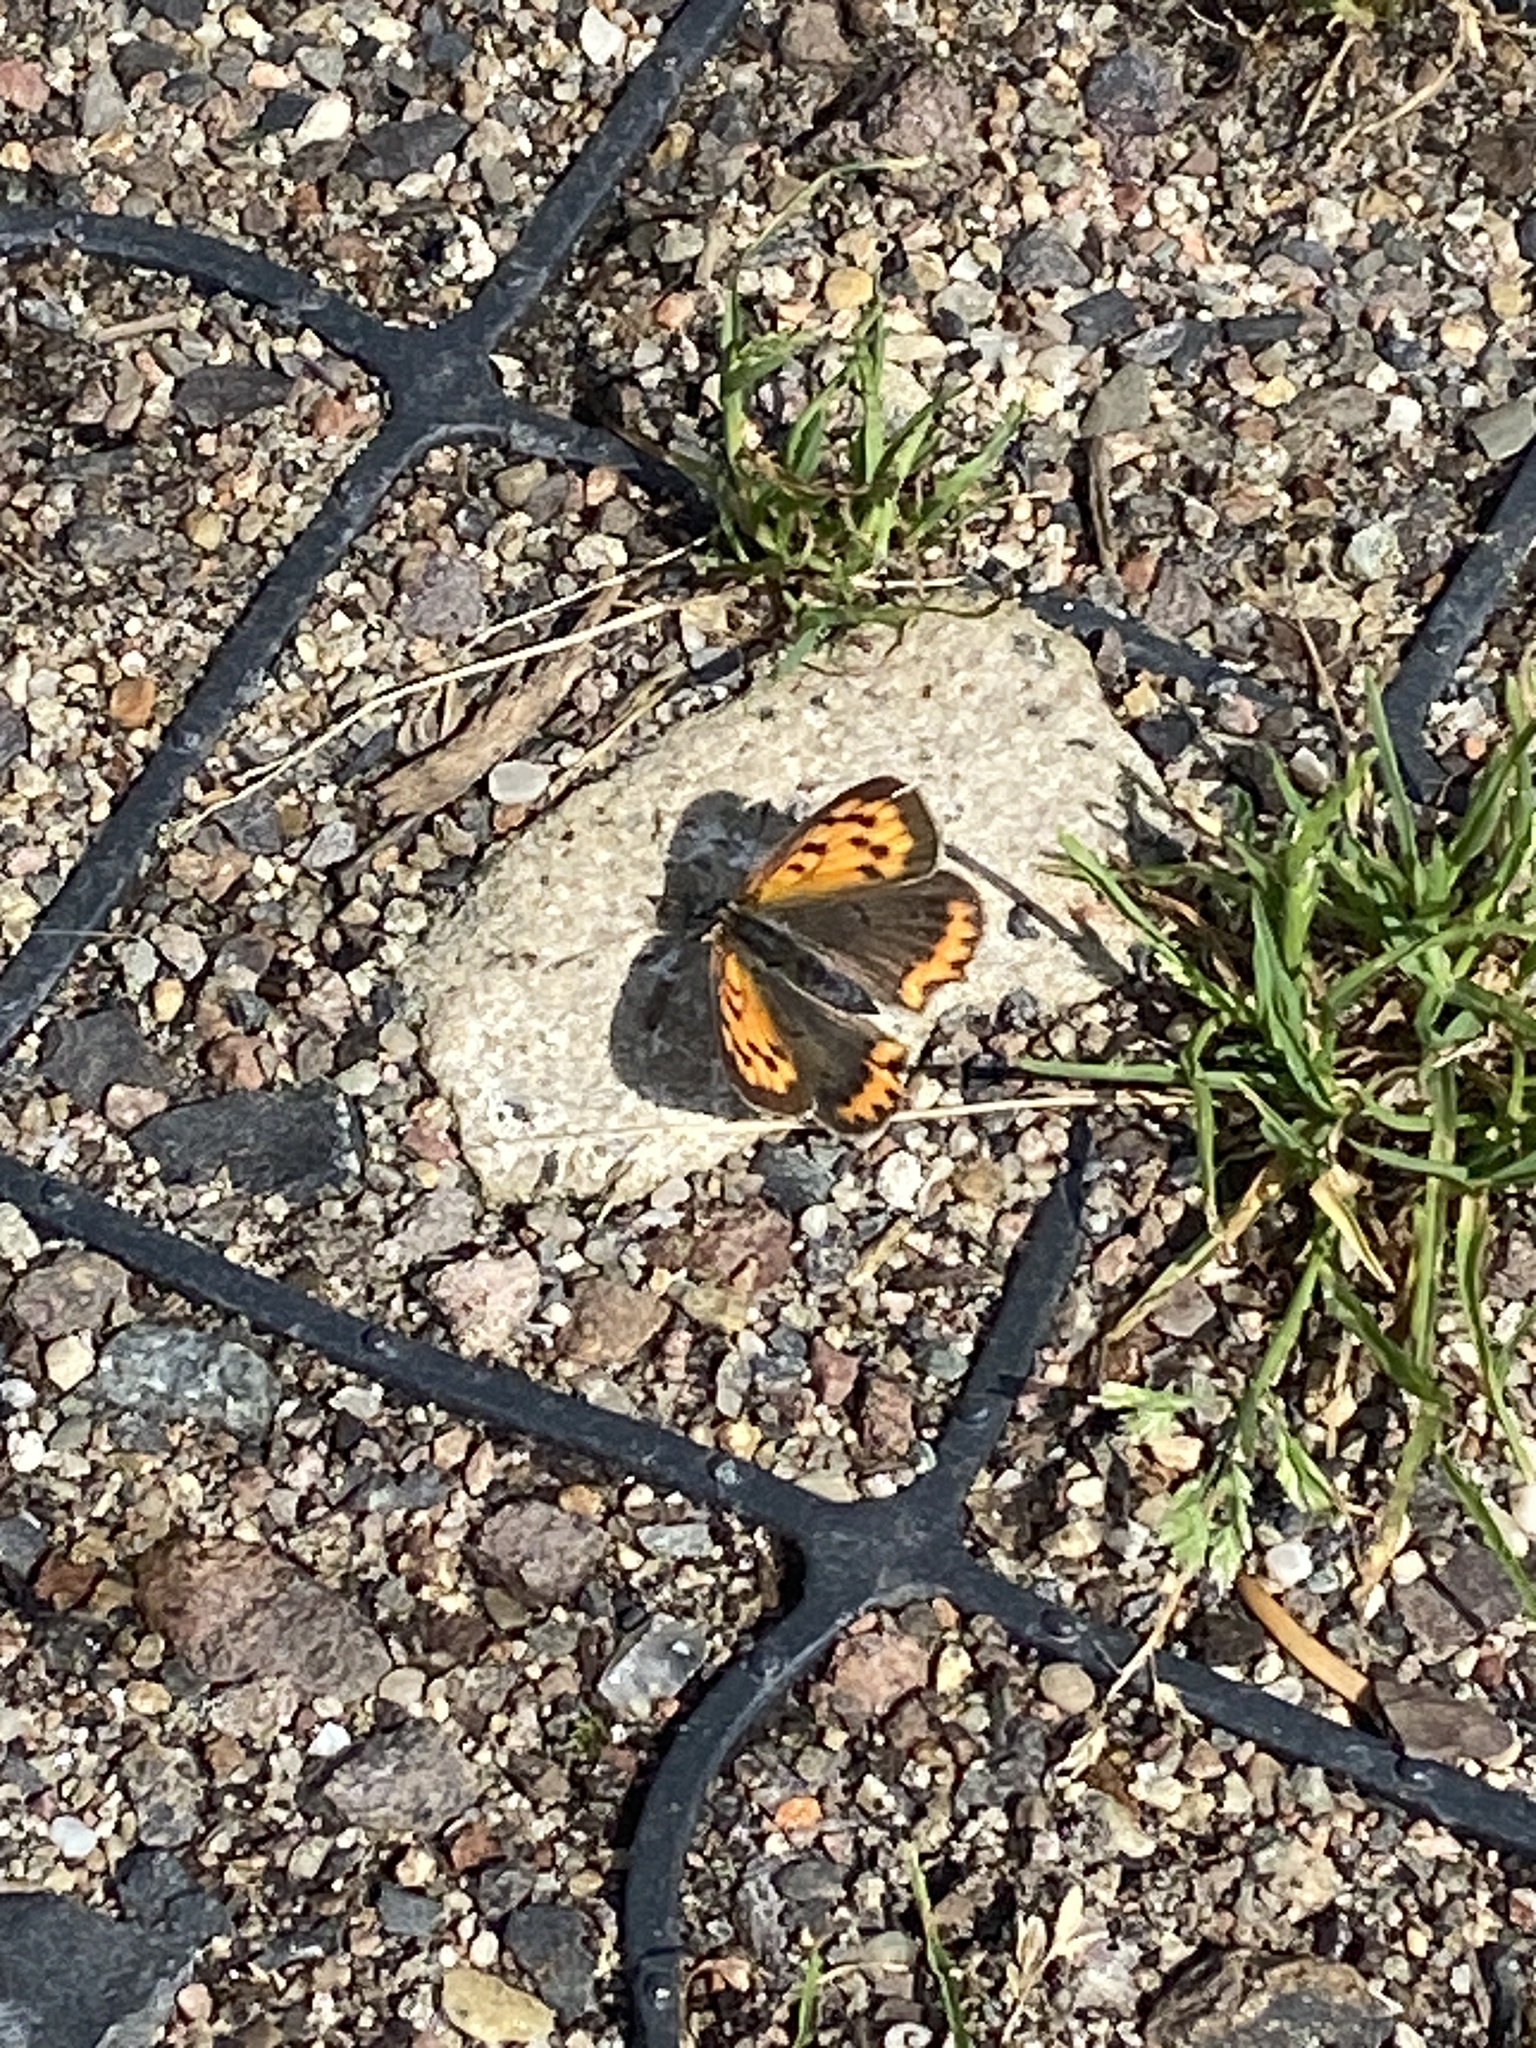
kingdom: Animalia
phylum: Arthropoda
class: Insecta
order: Lepidoptera
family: Lycaenidae
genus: Lycaena
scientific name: Lycaena phlaeas
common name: Small copper
